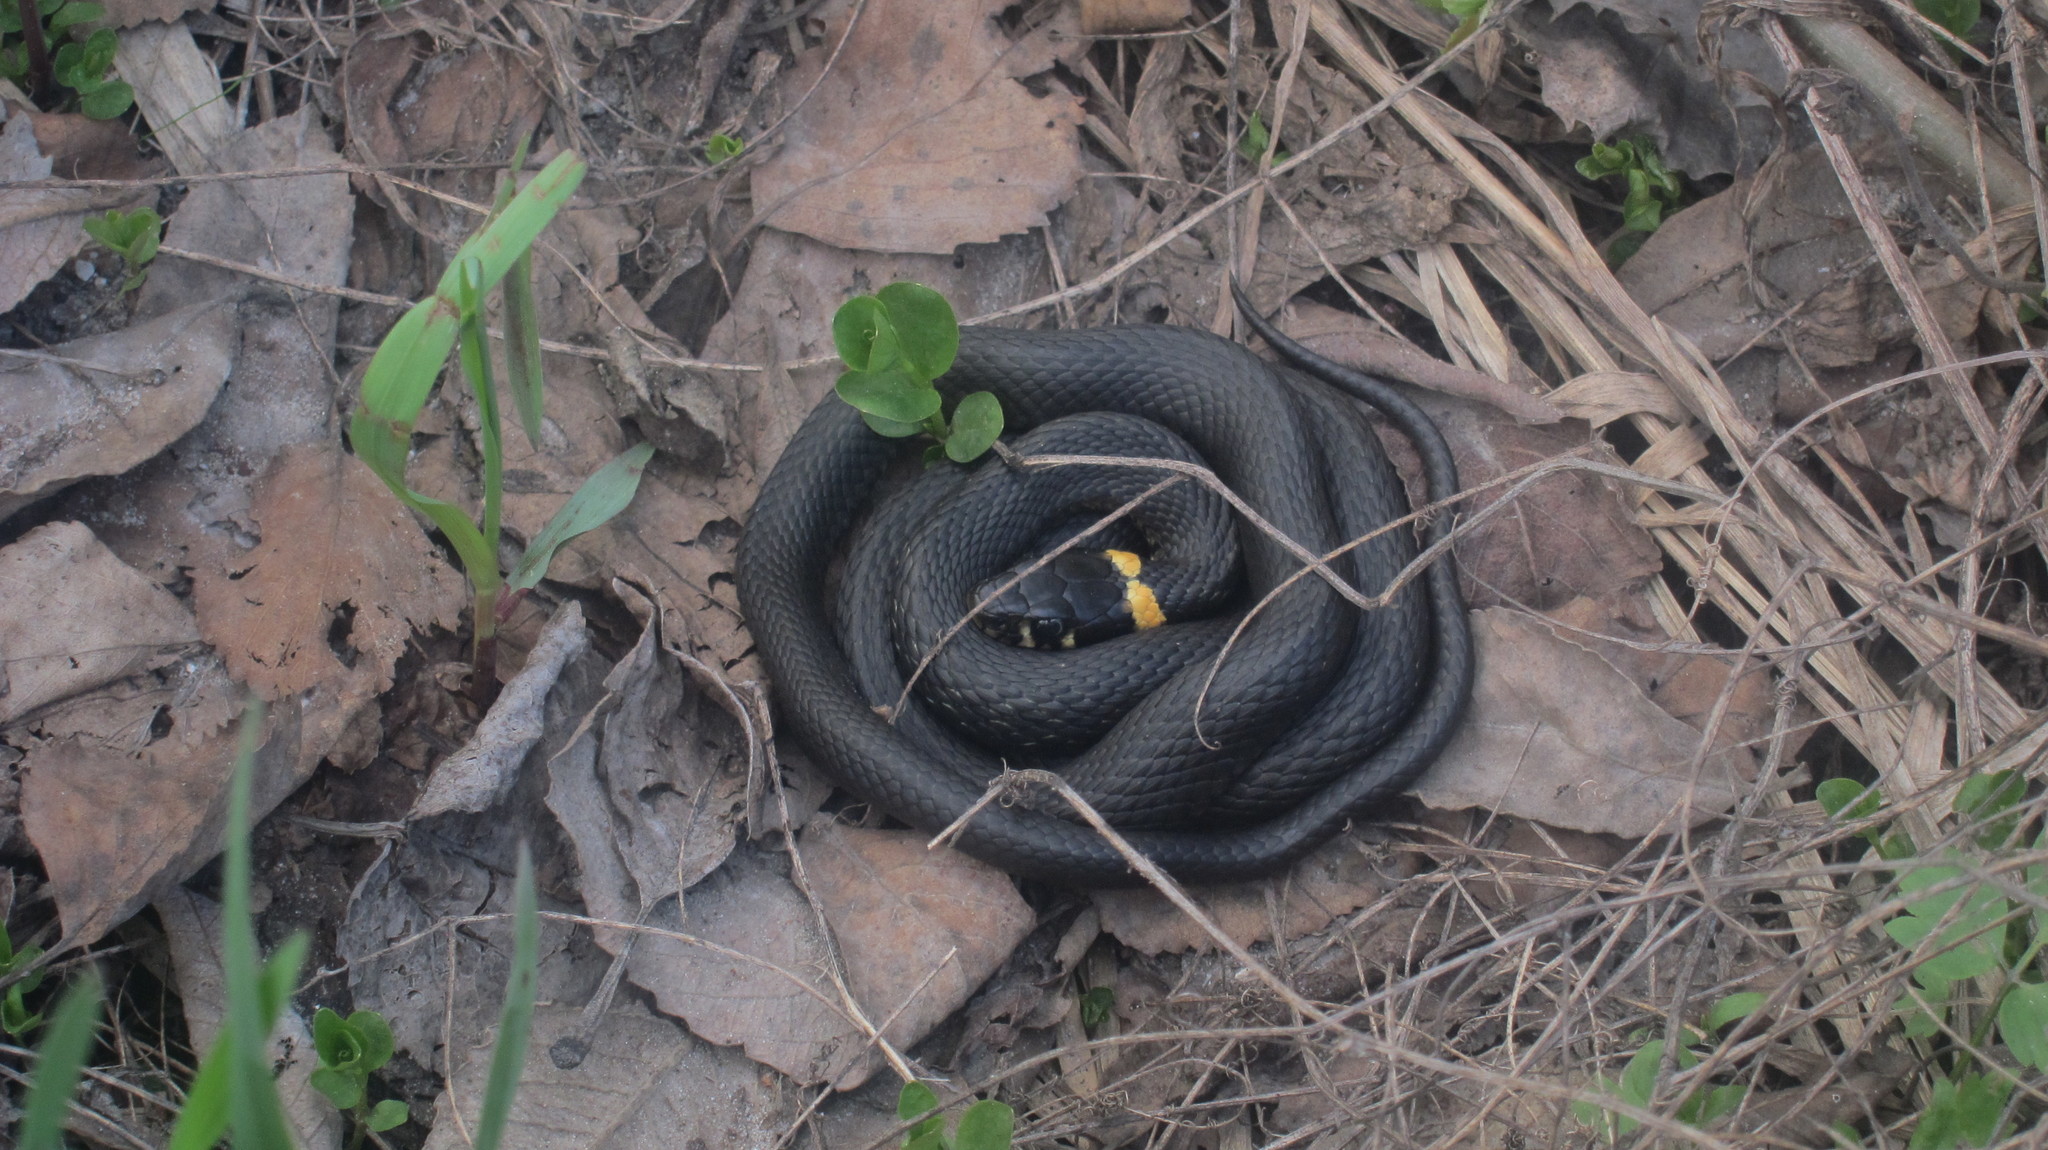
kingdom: Animalia
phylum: Chordata
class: Squamata
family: Colubridae
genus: Natrix
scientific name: Natrix natrix
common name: Grass snake
